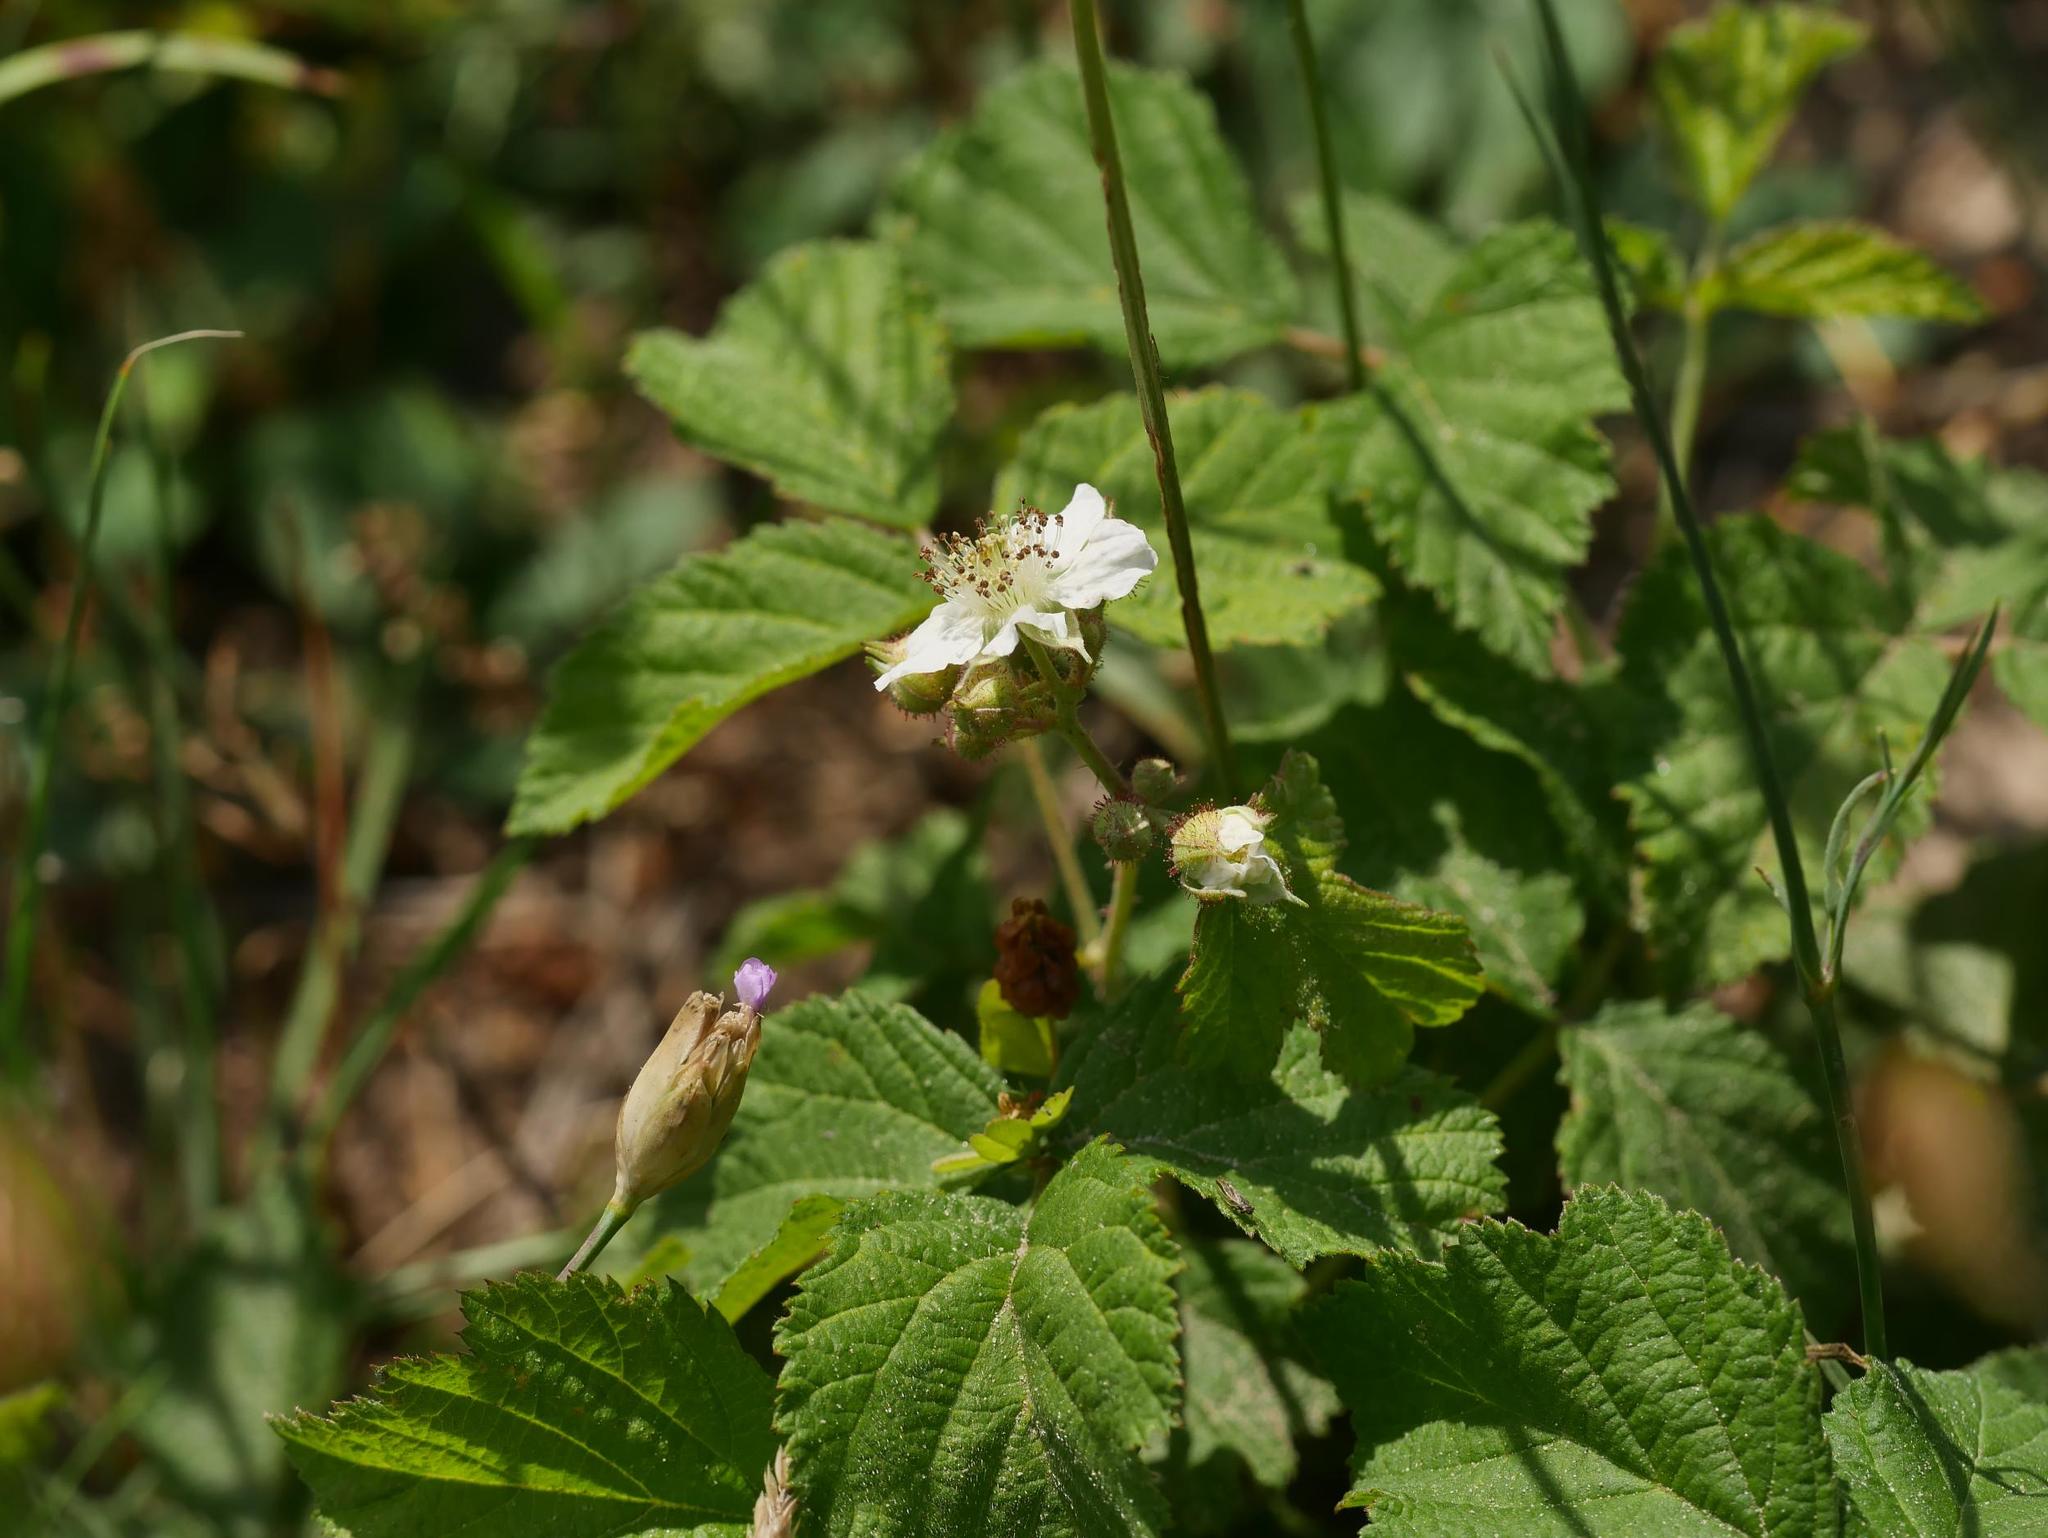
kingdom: Plantae
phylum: Tracheophyta
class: Magnoliopsida
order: Rosales
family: Rosaceae
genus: Rubus
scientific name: Rubus caesius
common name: Dewberry
